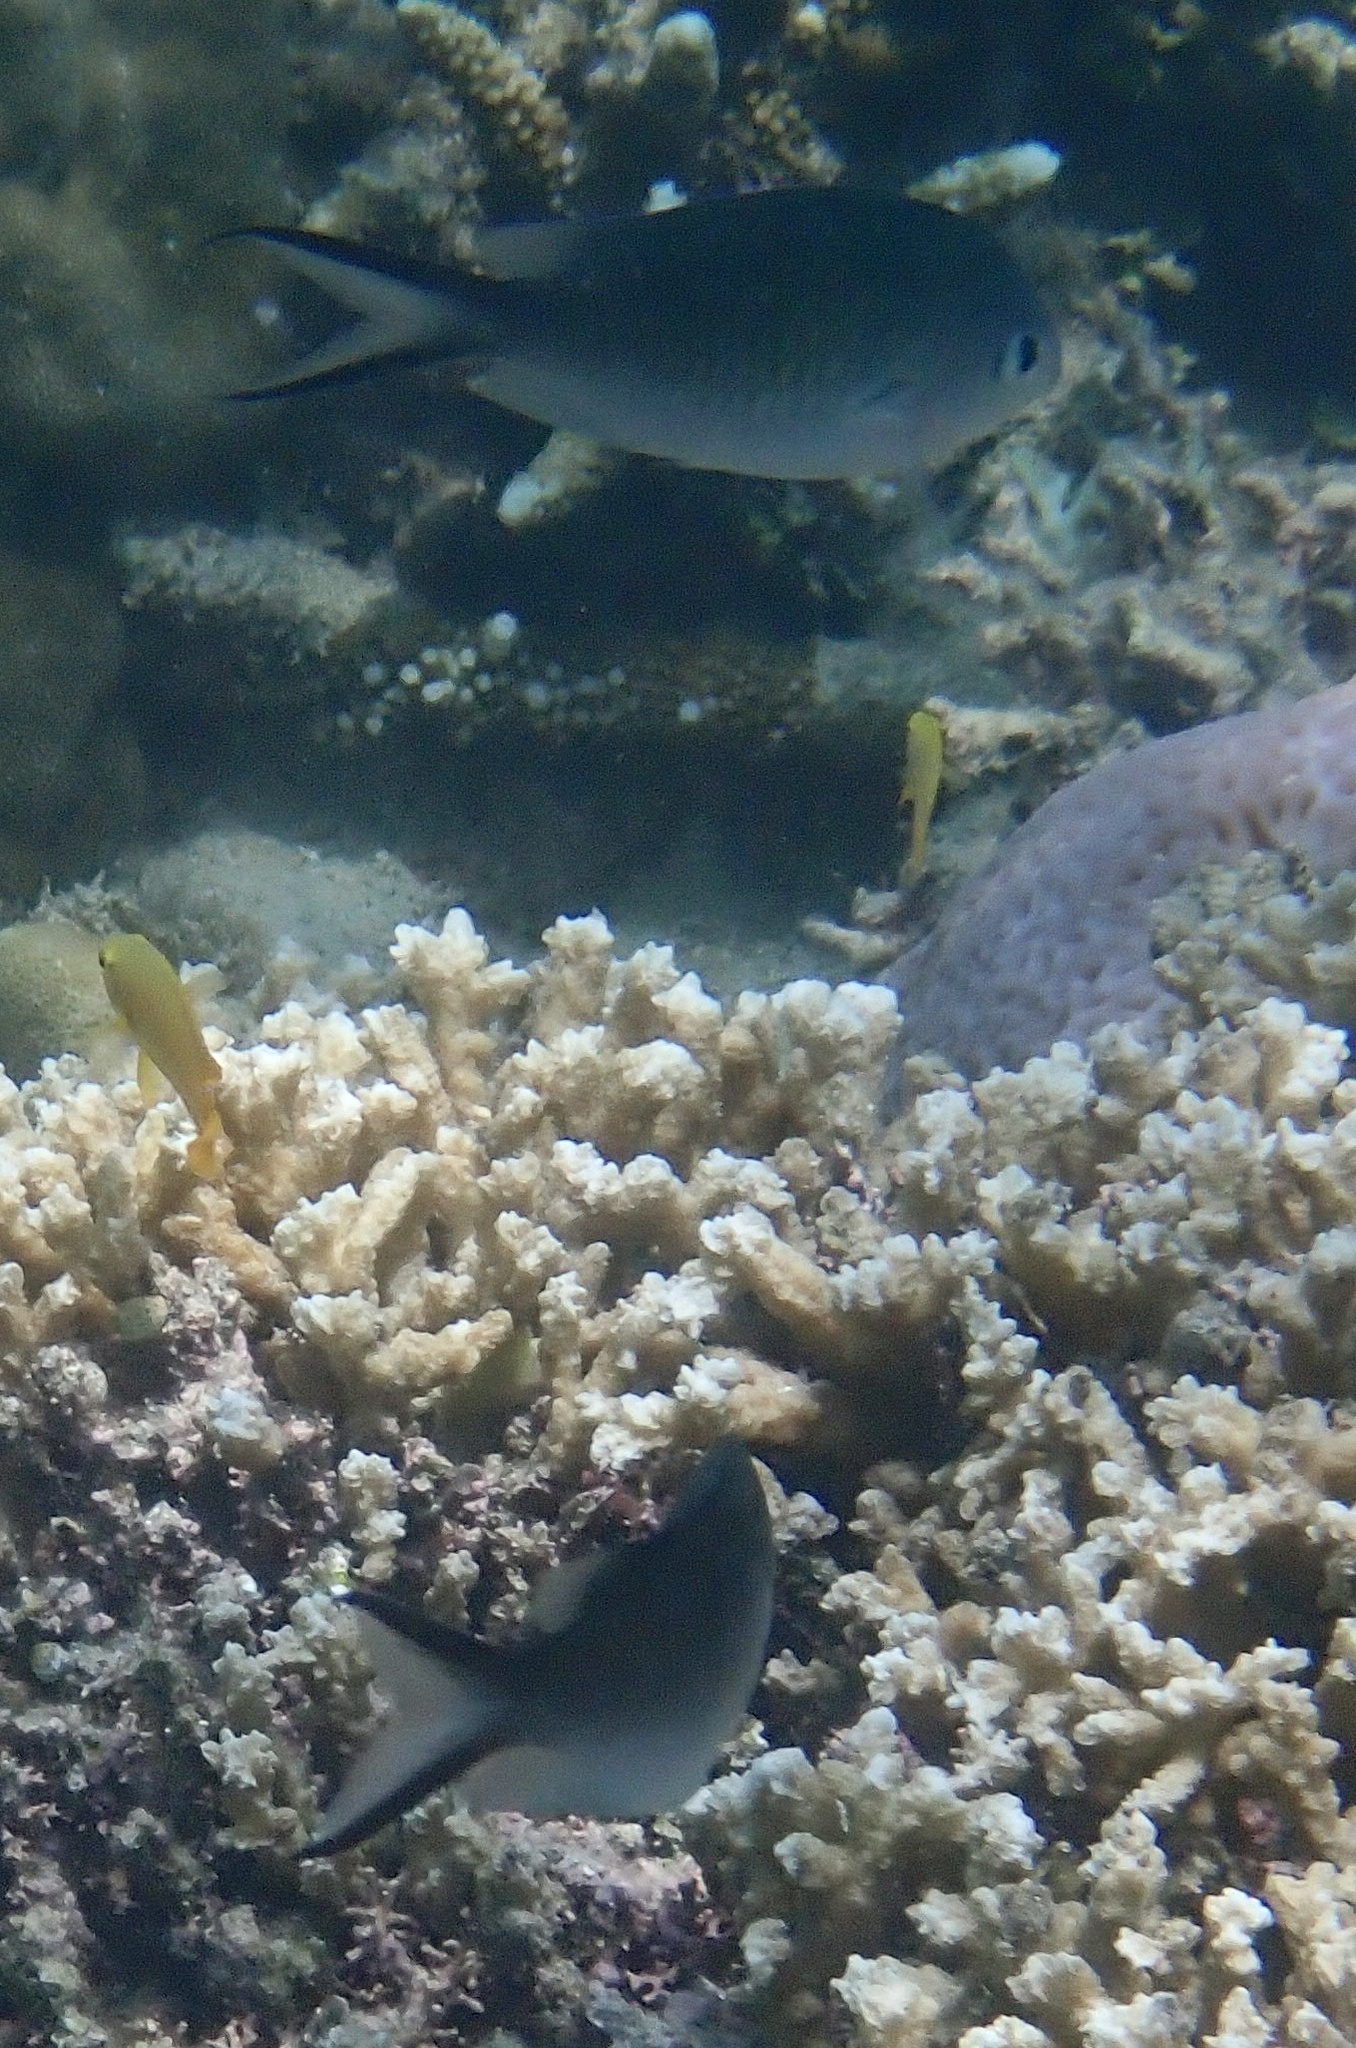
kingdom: Animalia
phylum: Chordata
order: Perciformes
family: Pomacentridae
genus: Chromis
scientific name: Chromis ternatensis
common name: Ternate chromis
